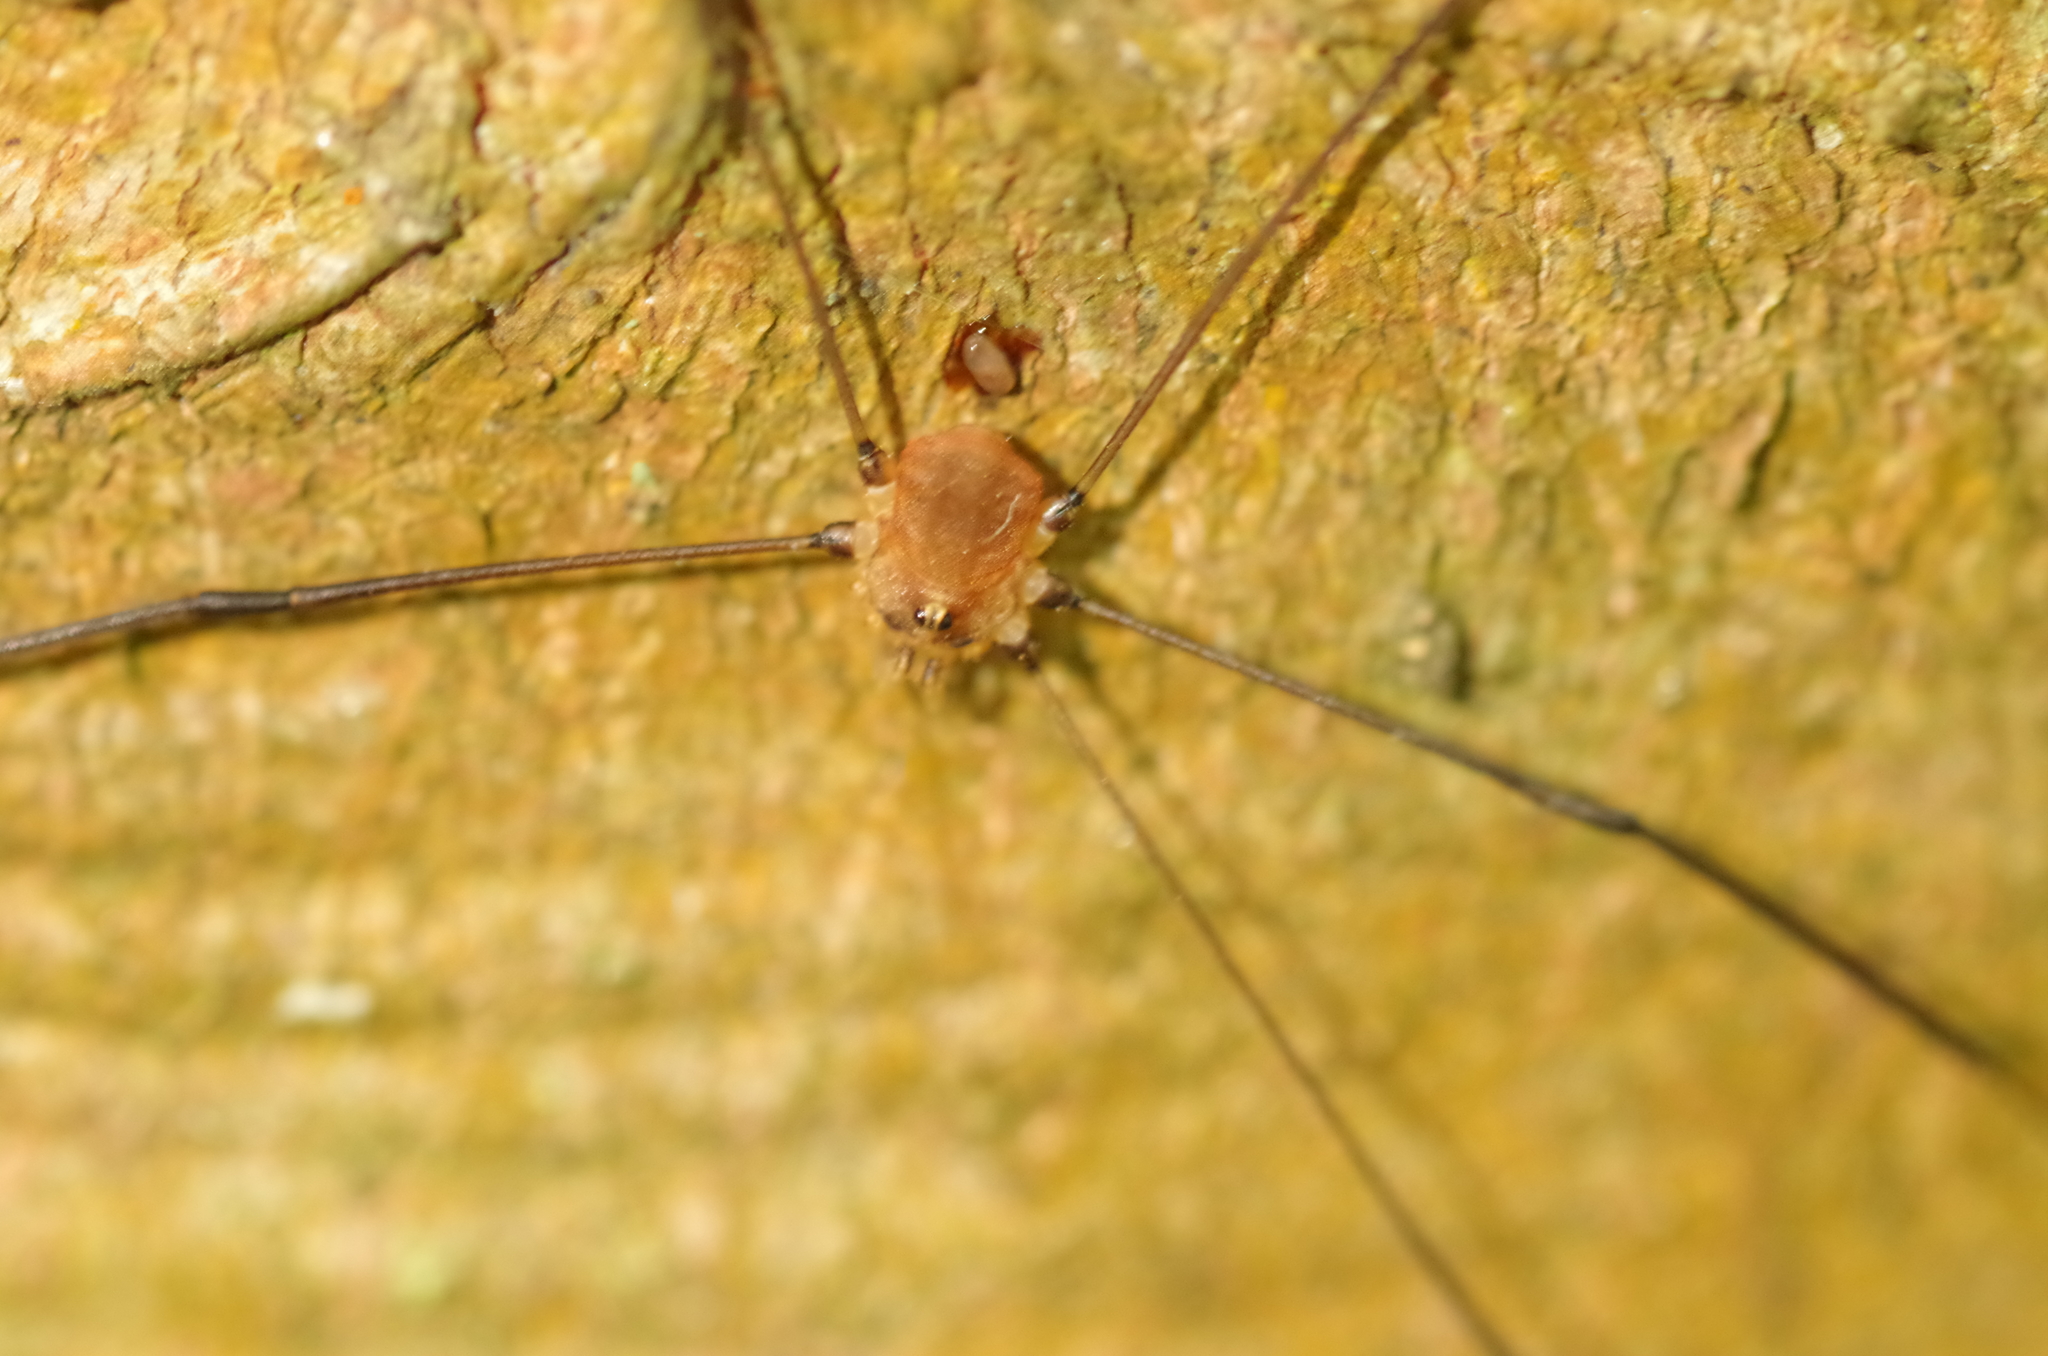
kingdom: Animalia
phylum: Arthropoda
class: Arachnida
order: Opiliones
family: Sclerosomatidae
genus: Leiobunum
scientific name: Leiobunum blackwalli
